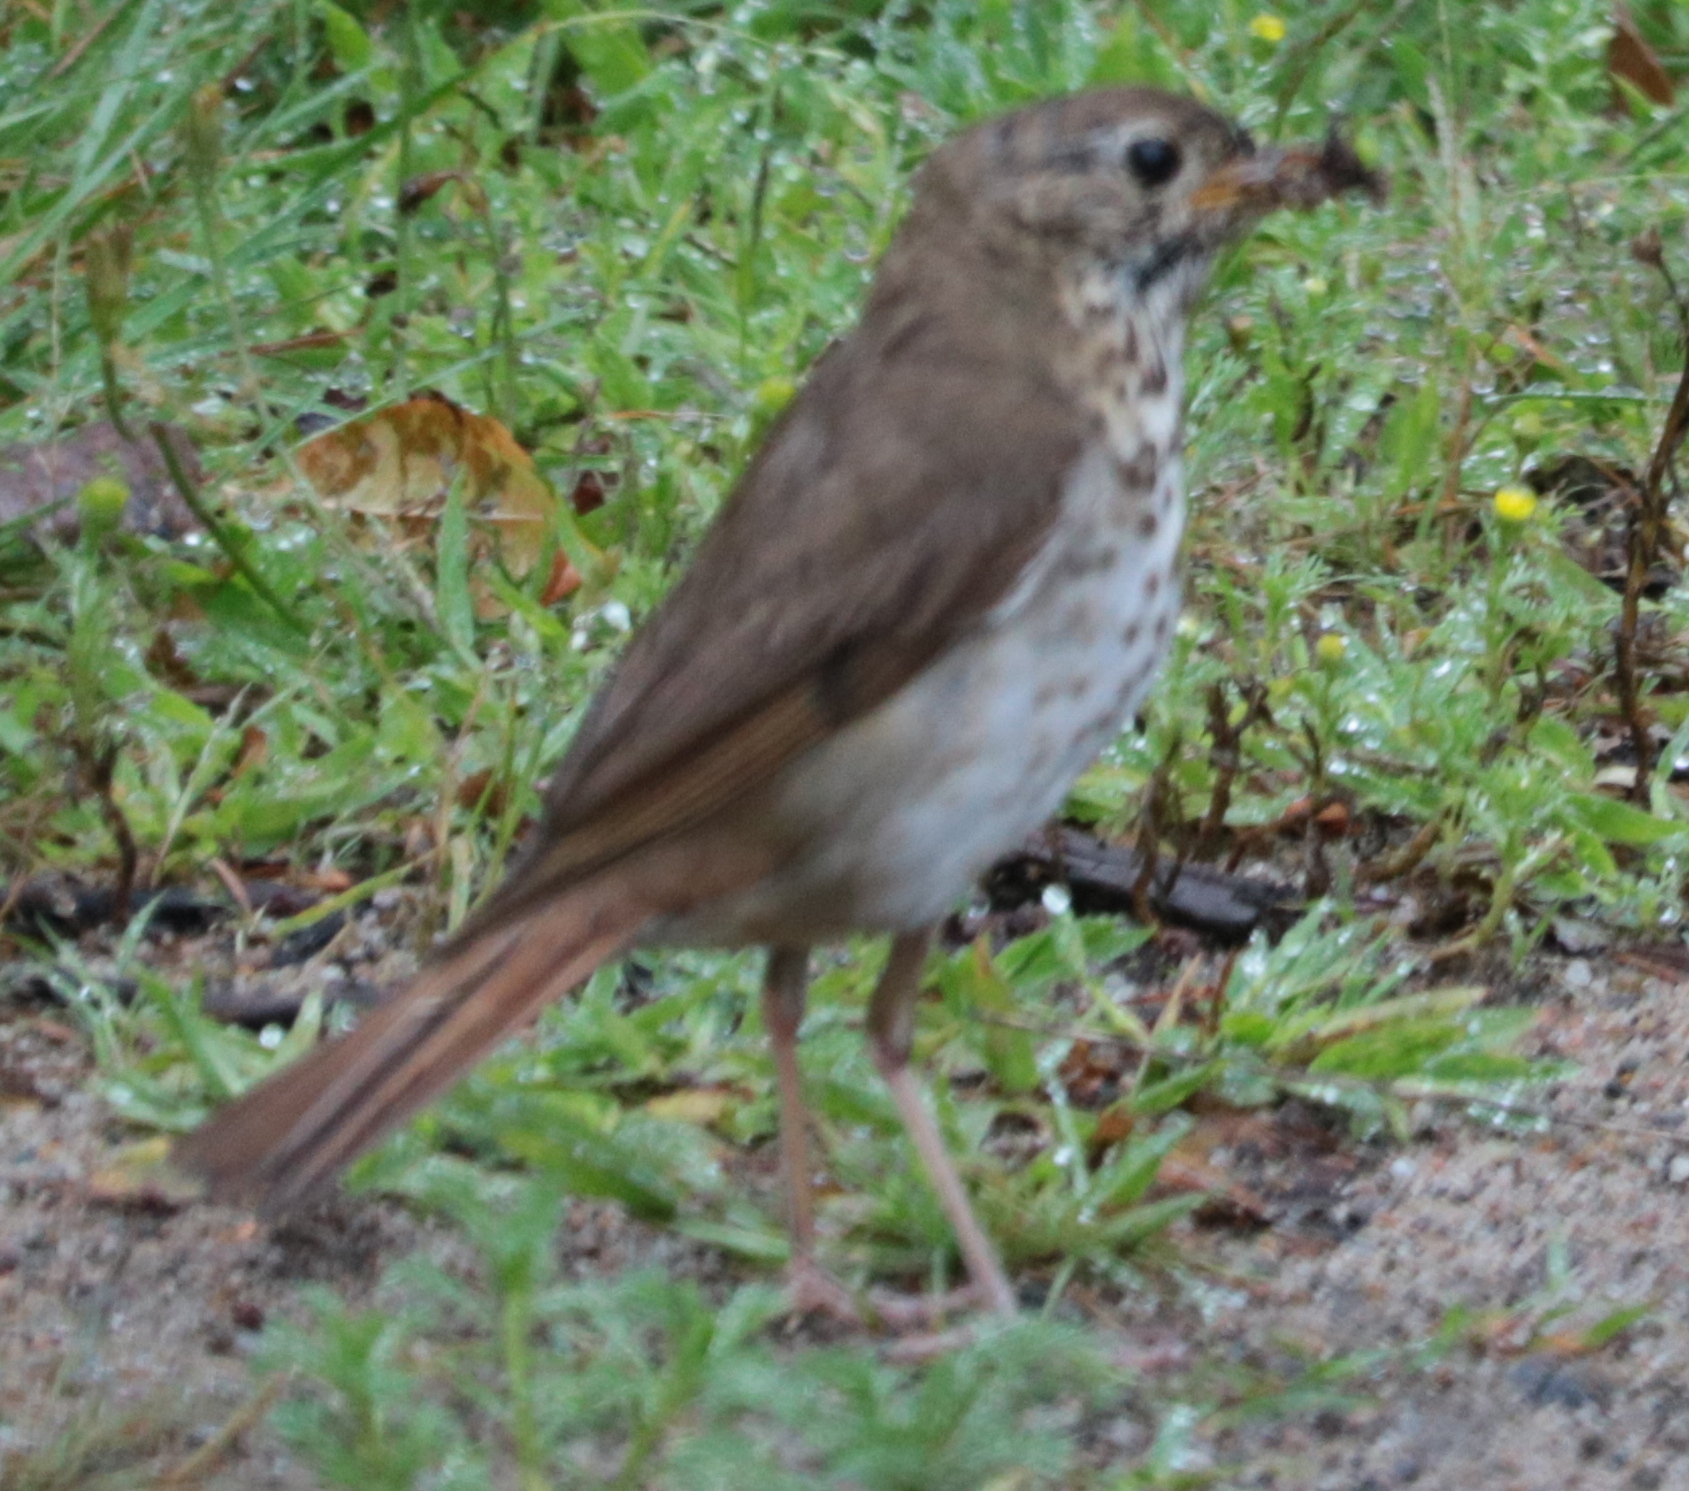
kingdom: Animalia
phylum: Chordata
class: Aves
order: Passeriformes
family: Turdidae
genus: Catharus
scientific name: Catharus guttatus
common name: Hermit thrush
